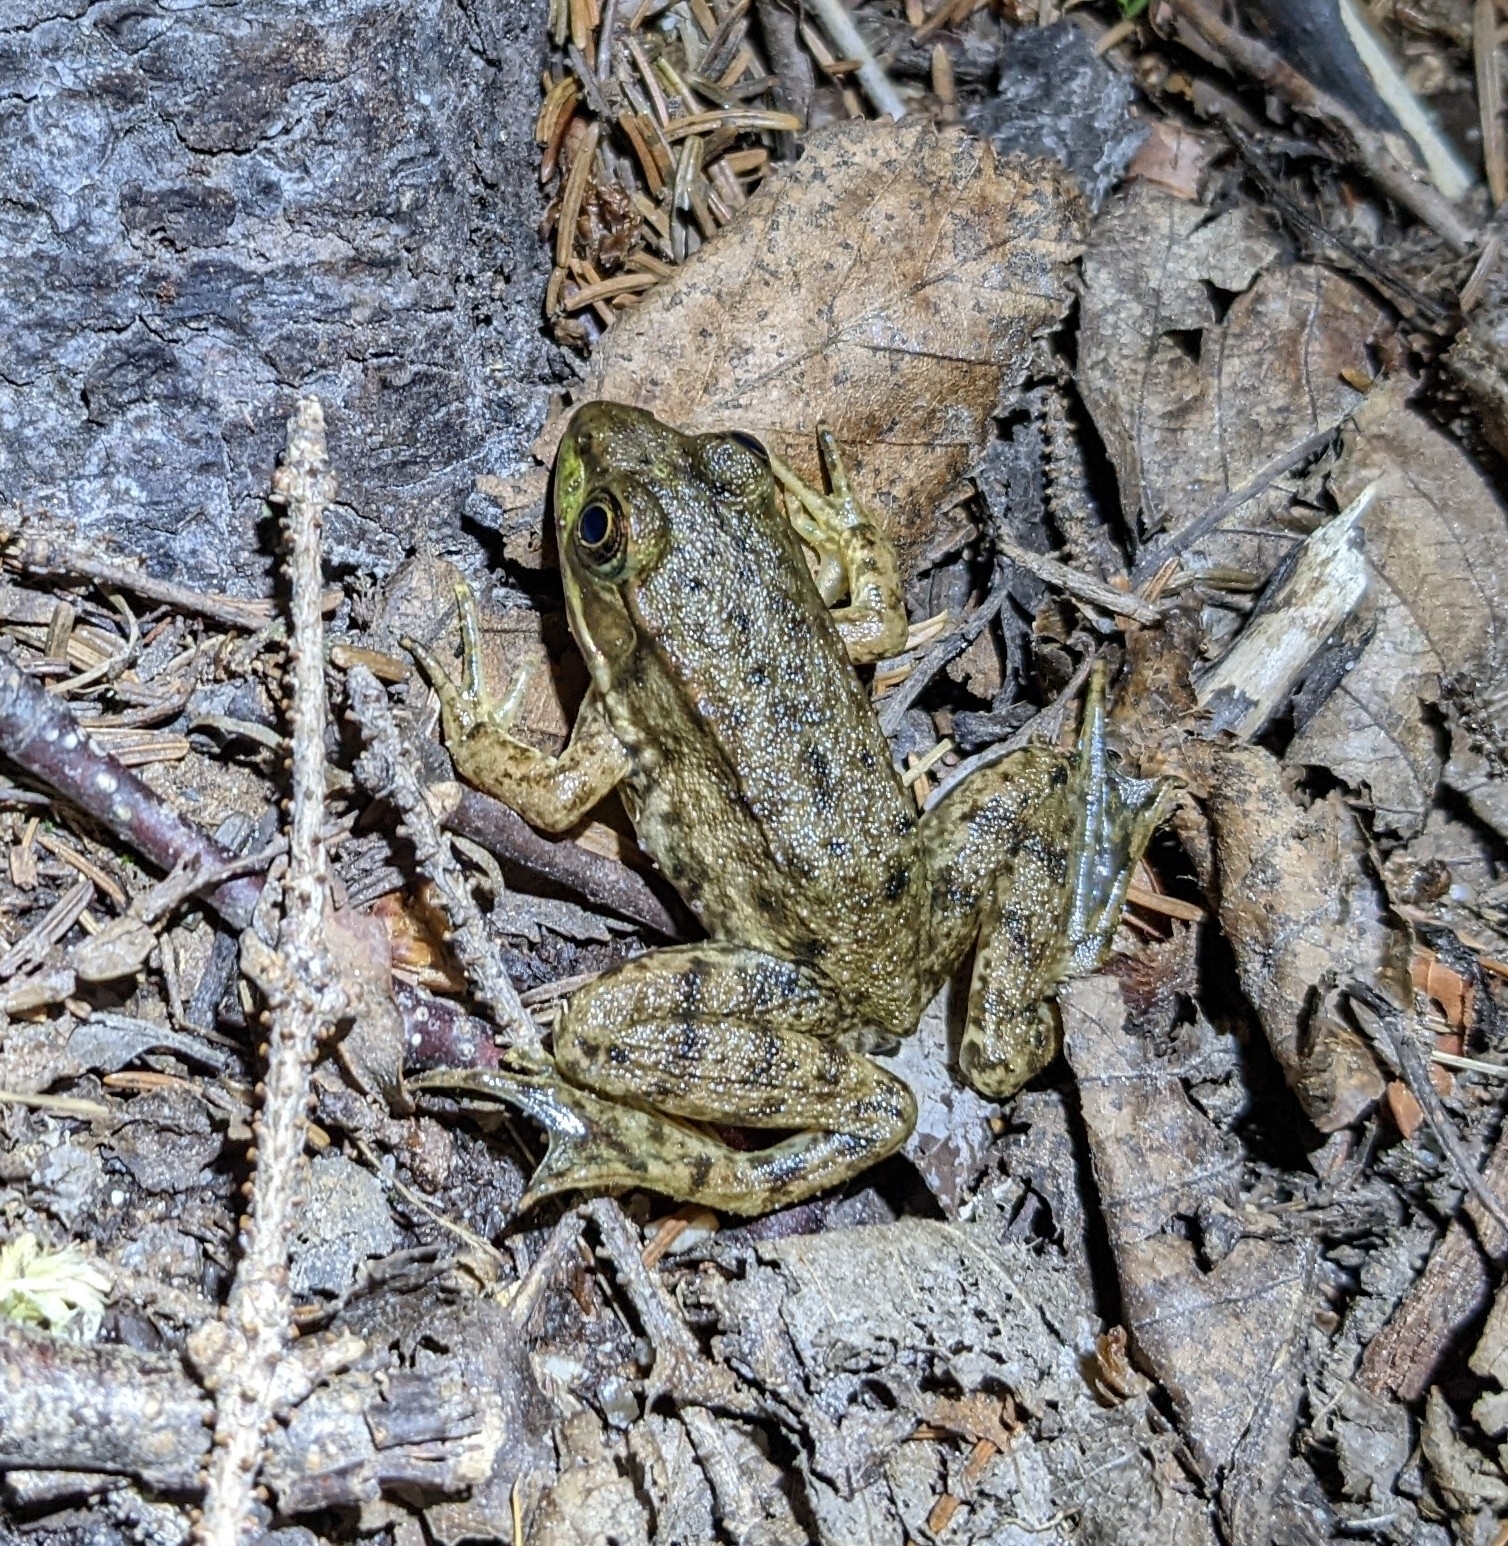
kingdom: Animalia
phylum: Chordata
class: Amphibia
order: Anura
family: Ranidae
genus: Lithobates
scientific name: Lithobates clamitans
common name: Green frog
